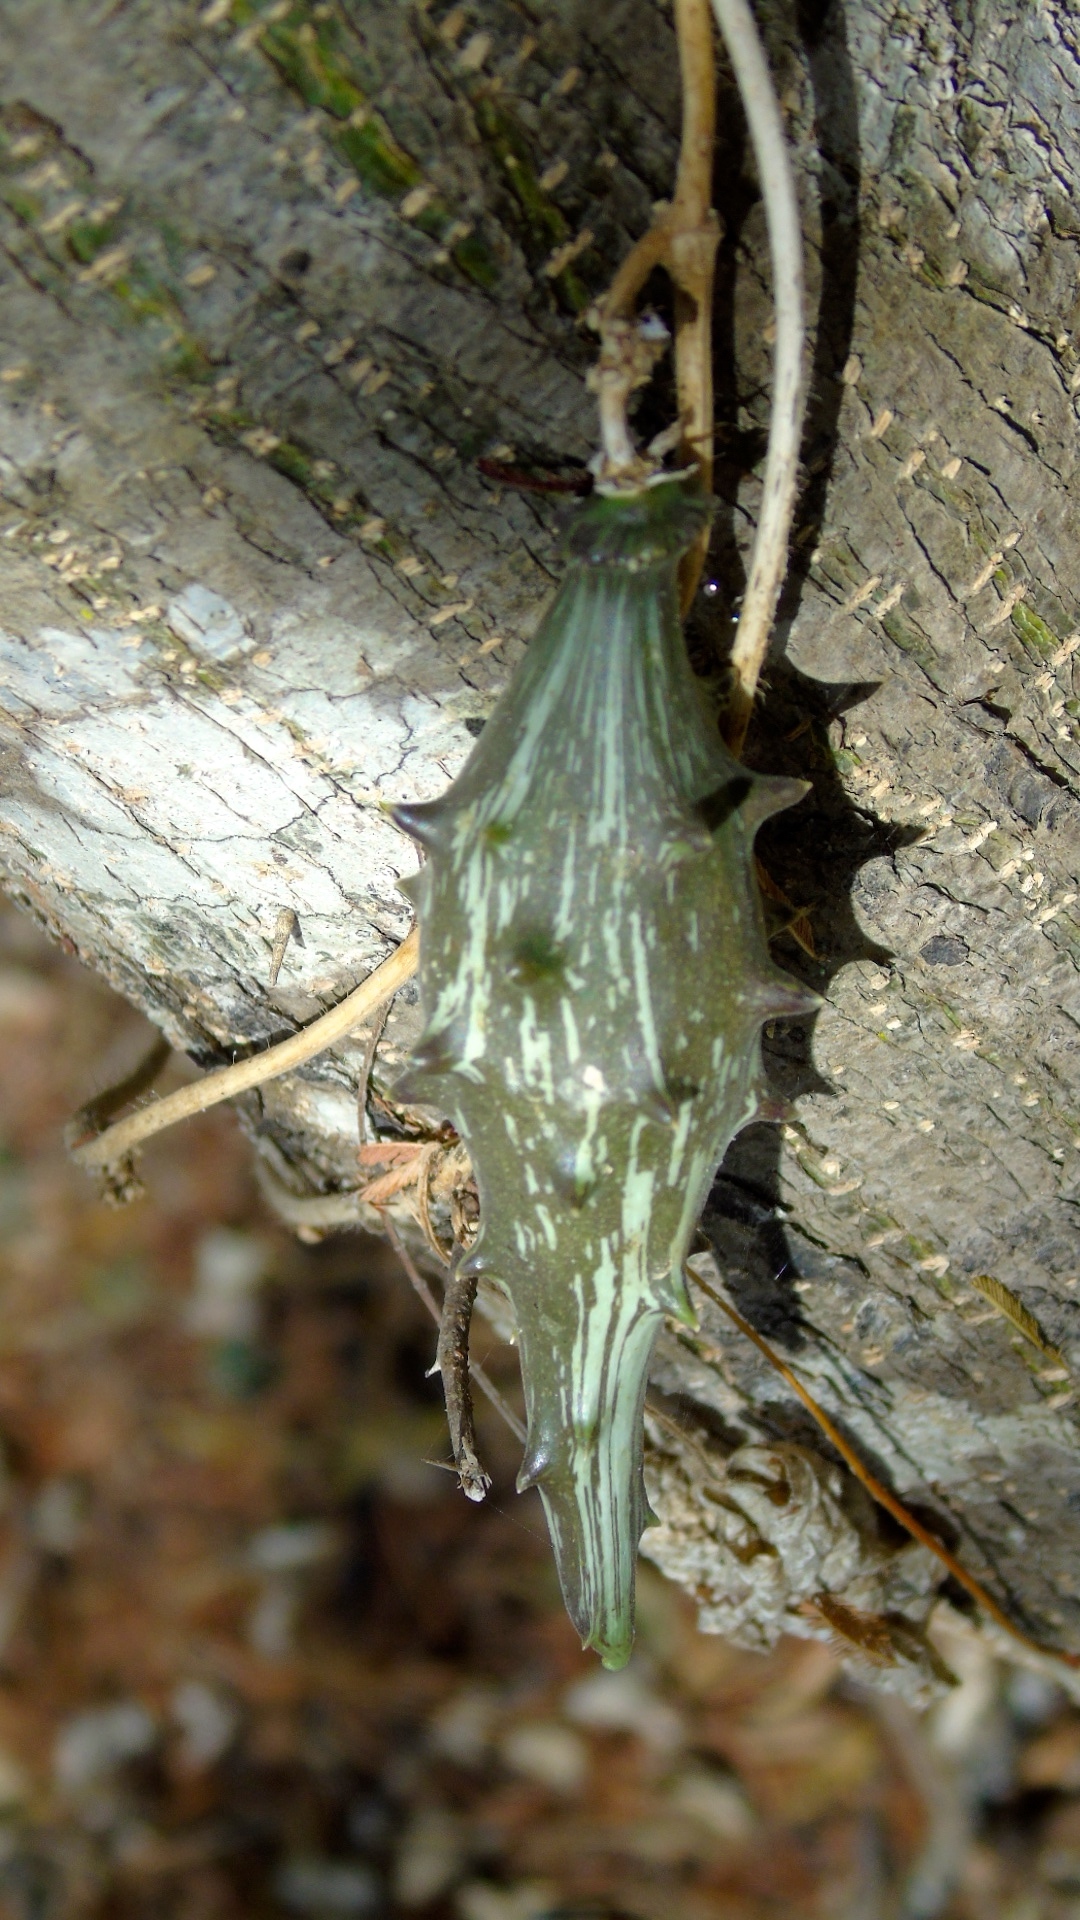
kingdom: Plantae
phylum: Tracheophyta
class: Magnoliopsida
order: Gentianales
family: Apocynaceae
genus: Dictyanthus
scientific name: Dictyanthus
